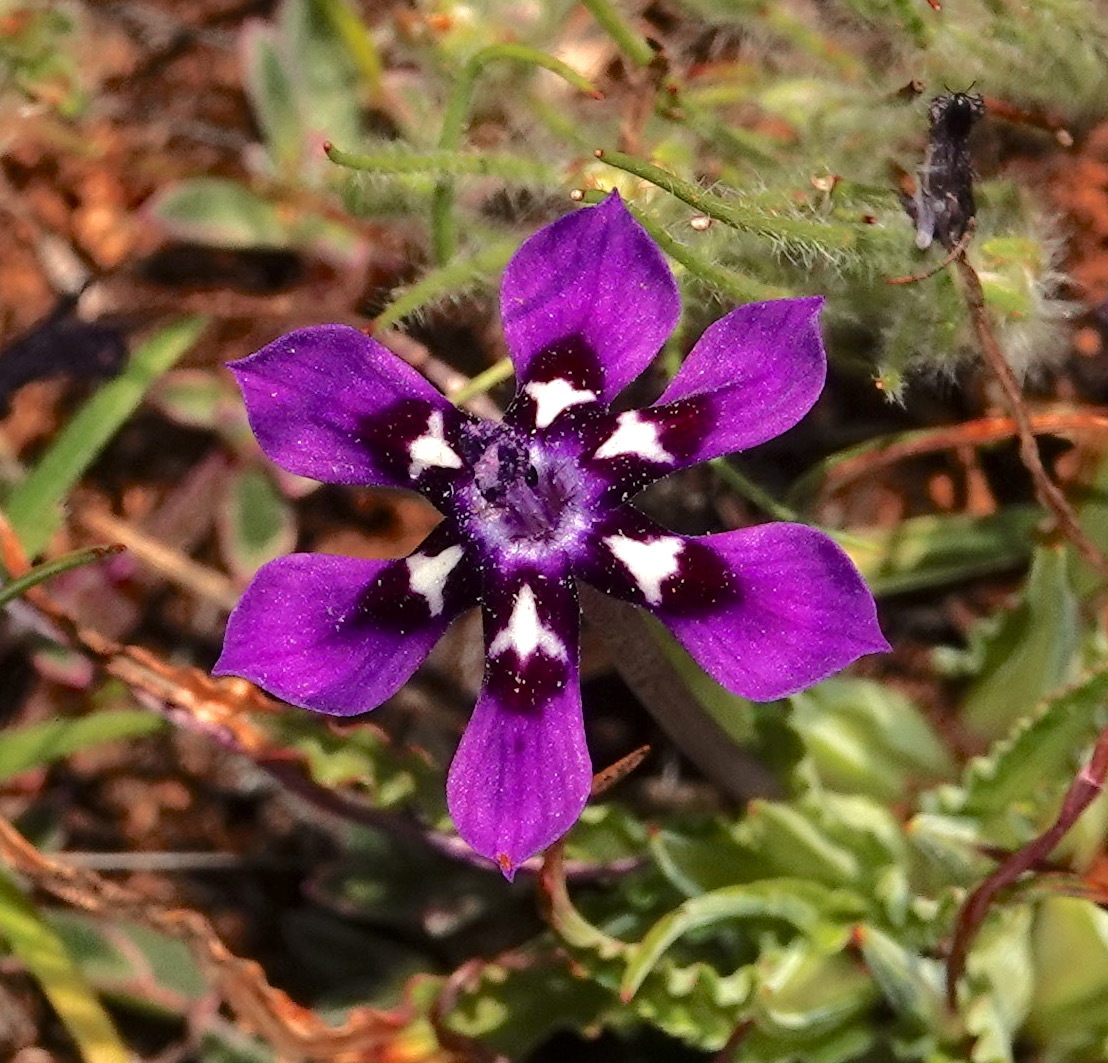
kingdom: Plantae
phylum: Tracheophyta
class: Liliopsida
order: Asparagales
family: Iridaceae
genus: Lapeirousia
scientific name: Lapeirousia oreogena
